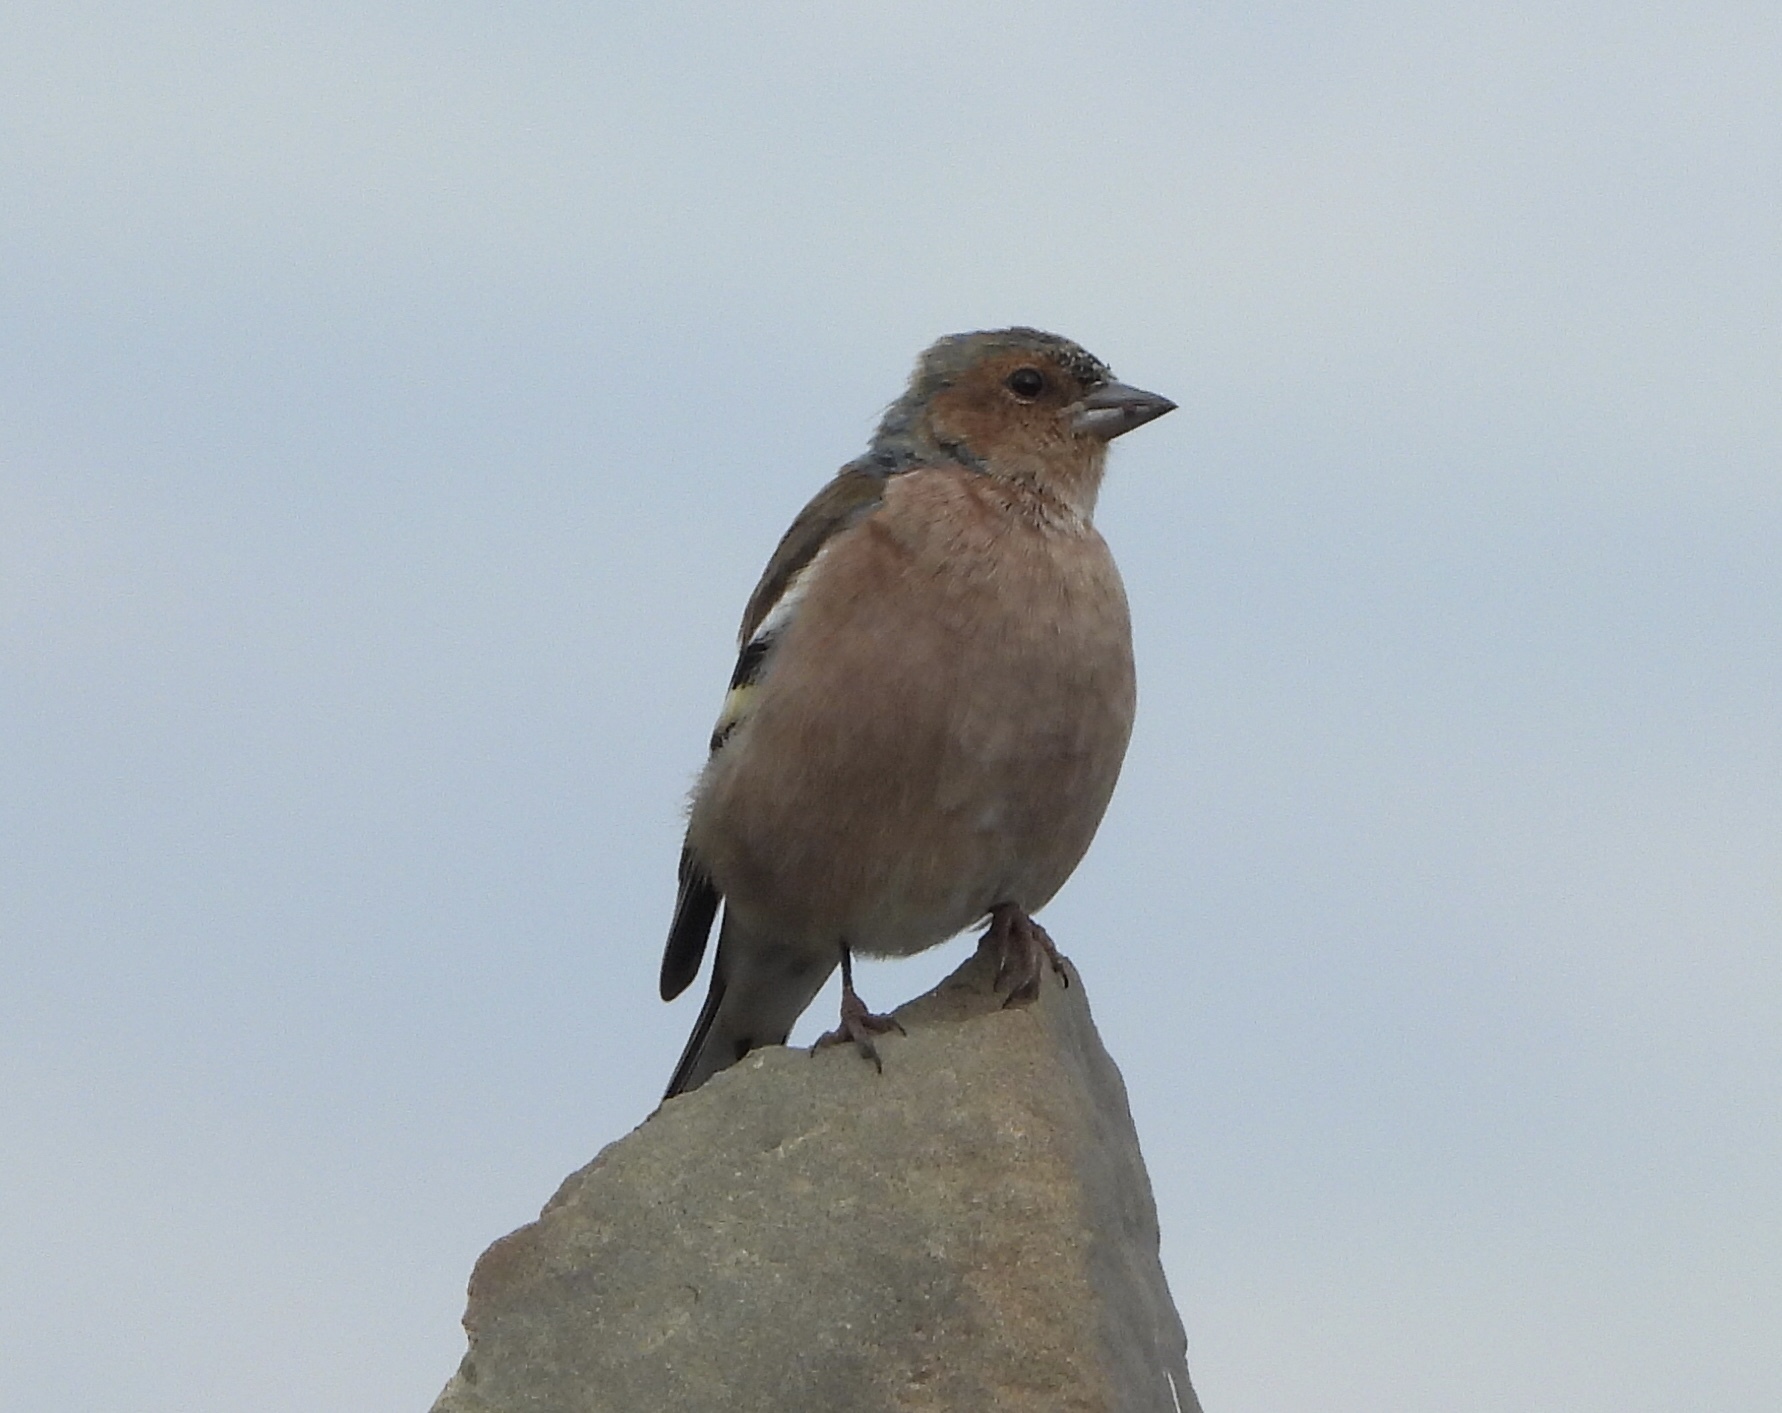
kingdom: Animalia
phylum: Chordata
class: Aves
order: Passeriformes
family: Fringillidae
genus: Fringilla
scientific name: Fringilla coelebs
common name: Common chaffinch
